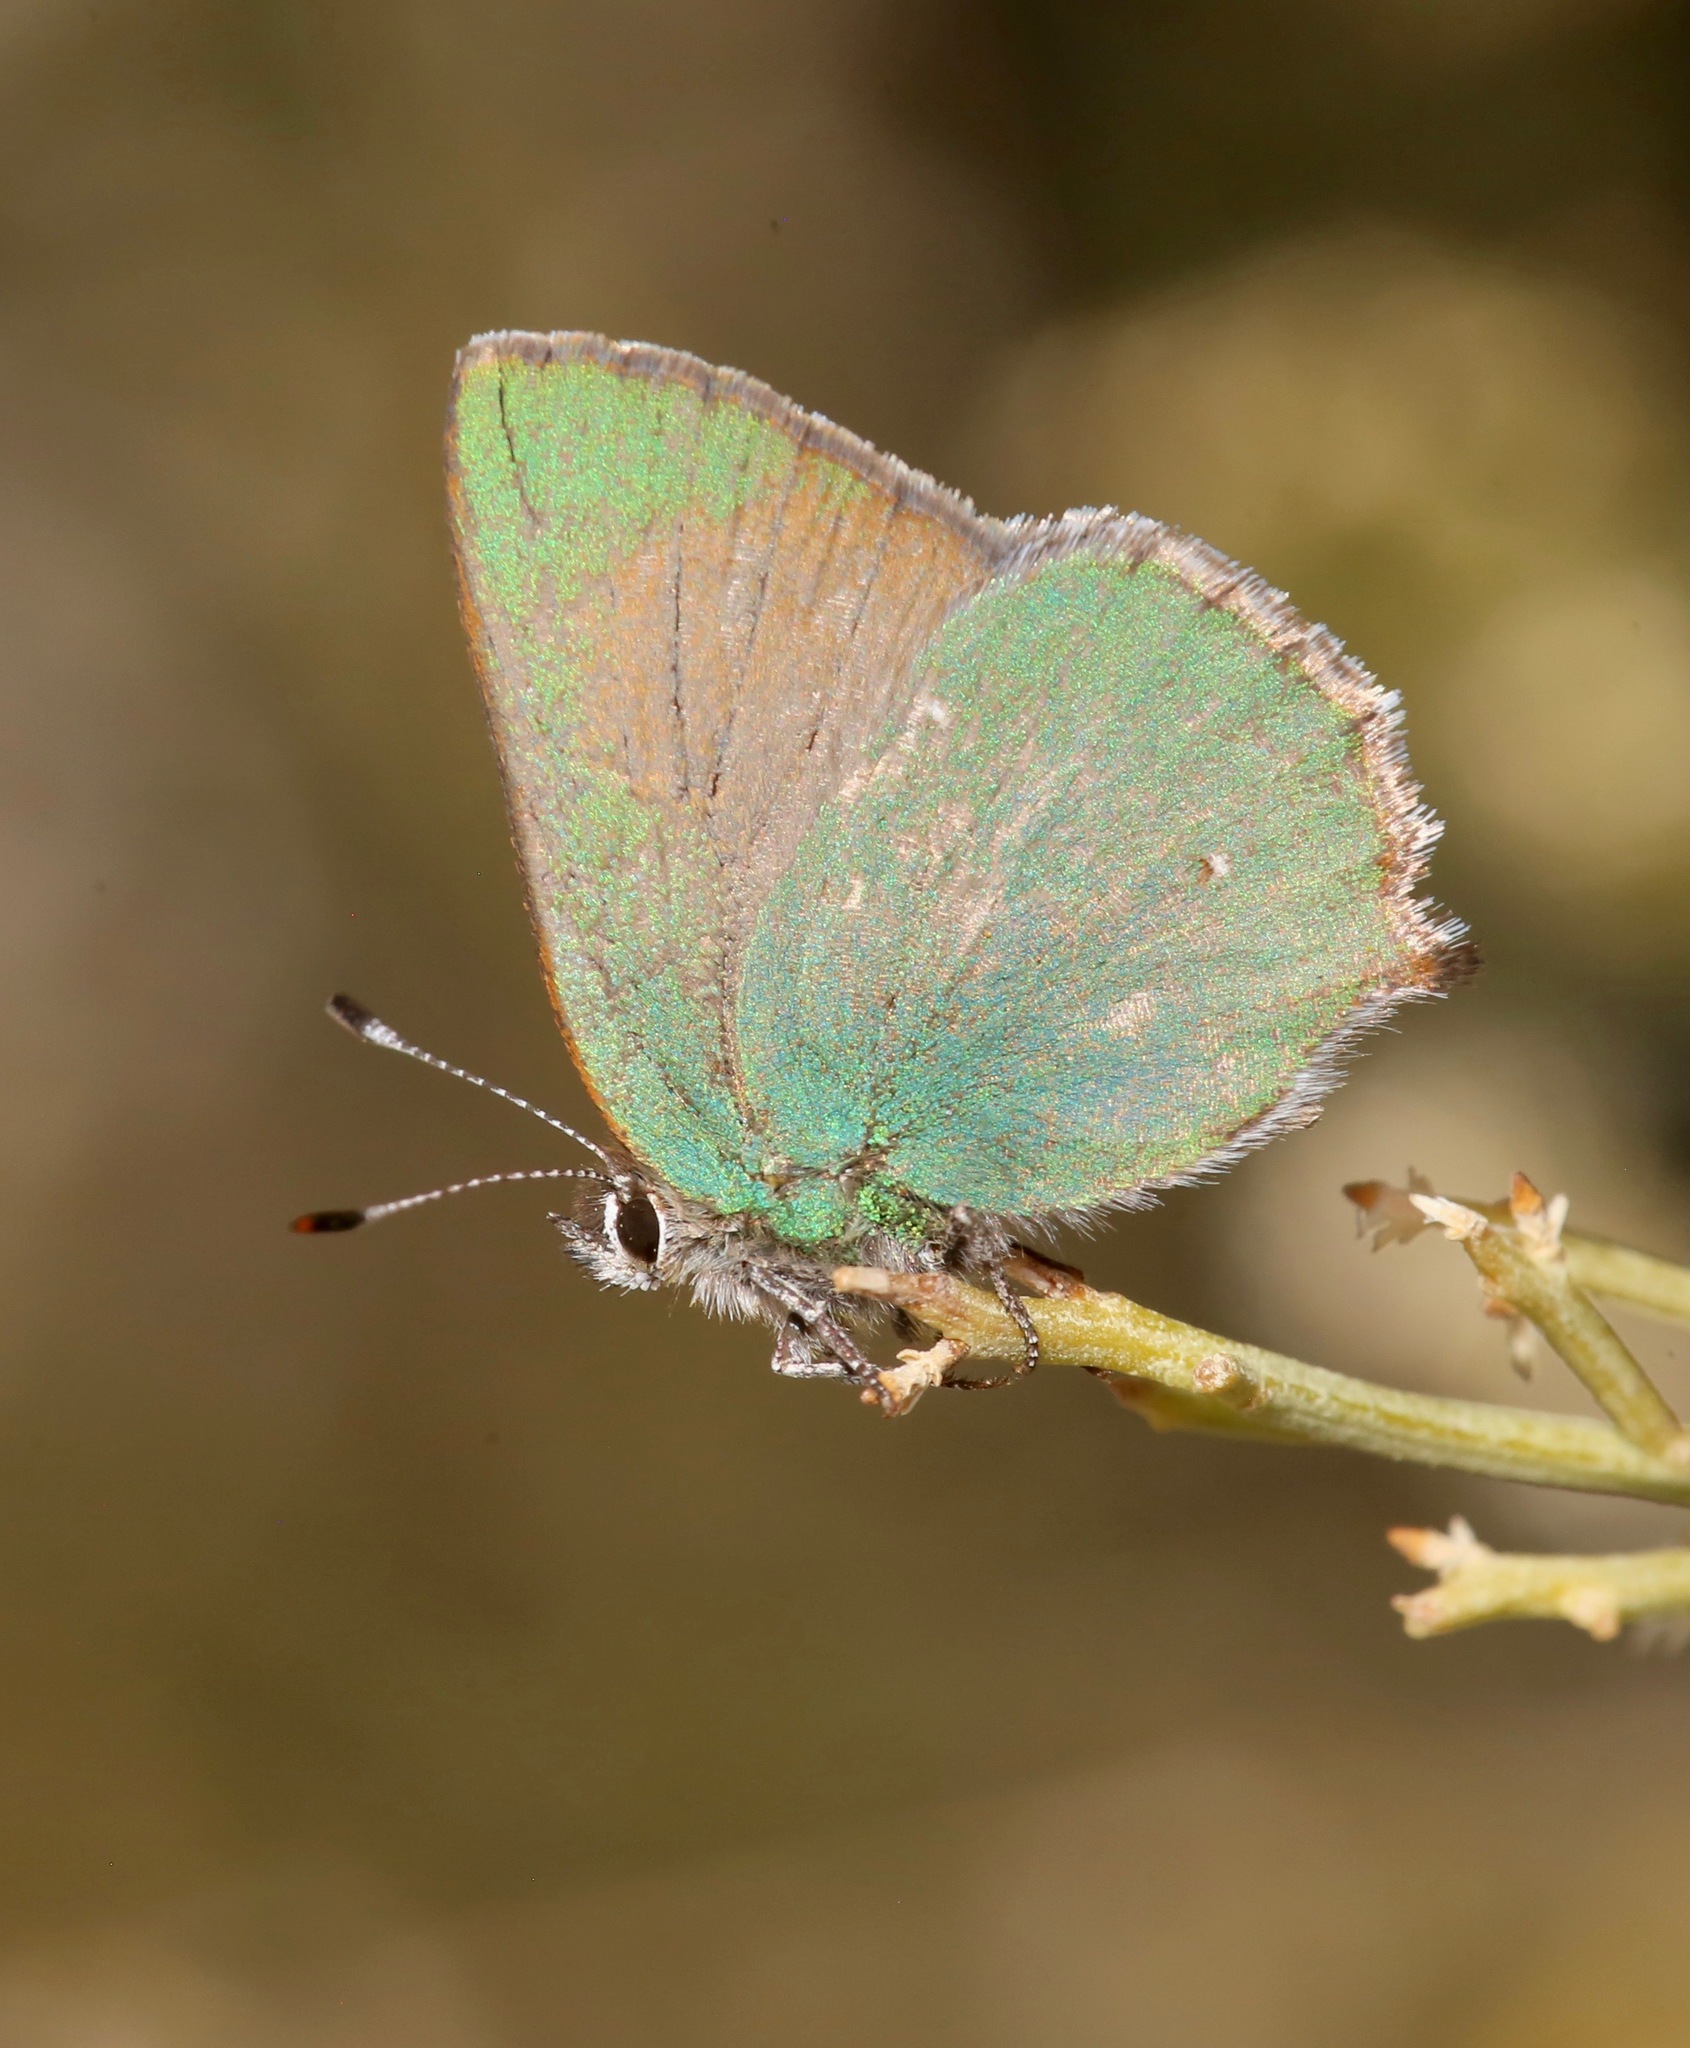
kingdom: Animalia
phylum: Arthropoda
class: Insecta
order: Lepidoptera
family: Lycaenidae
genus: Callophrys
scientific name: Callophrys dumetorum
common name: Bramble hairstreak
